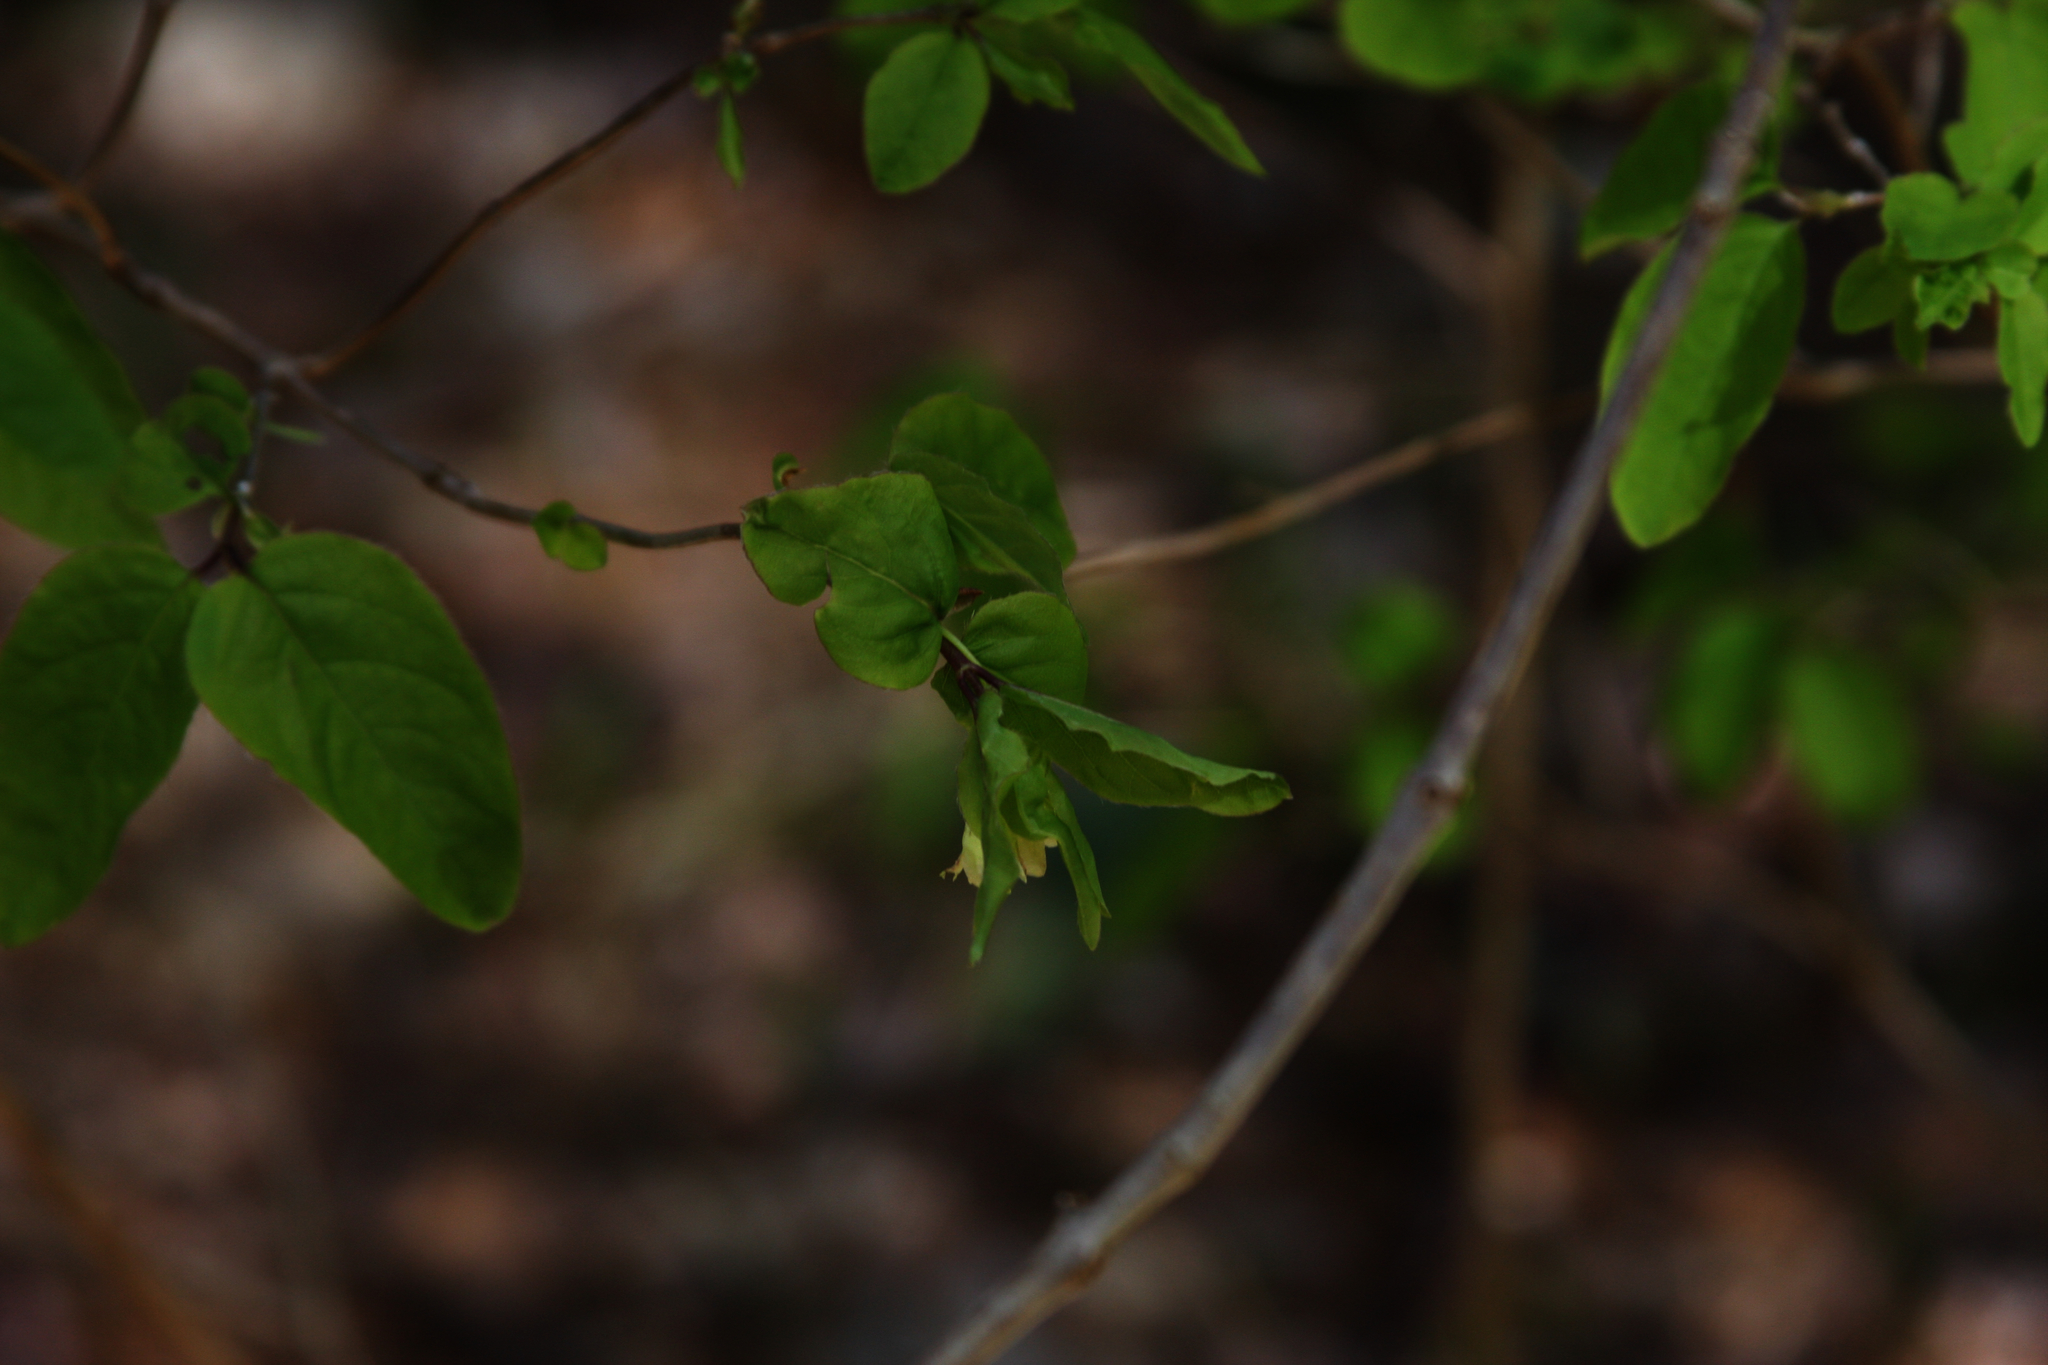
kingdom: Plantae
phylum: Tracheophyta
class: Magnoliopsida
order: Dipsacales
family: Caprifoliaceae
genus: Lonicera
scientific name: Lonicera canadensis
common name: American fly-honeysuckle
